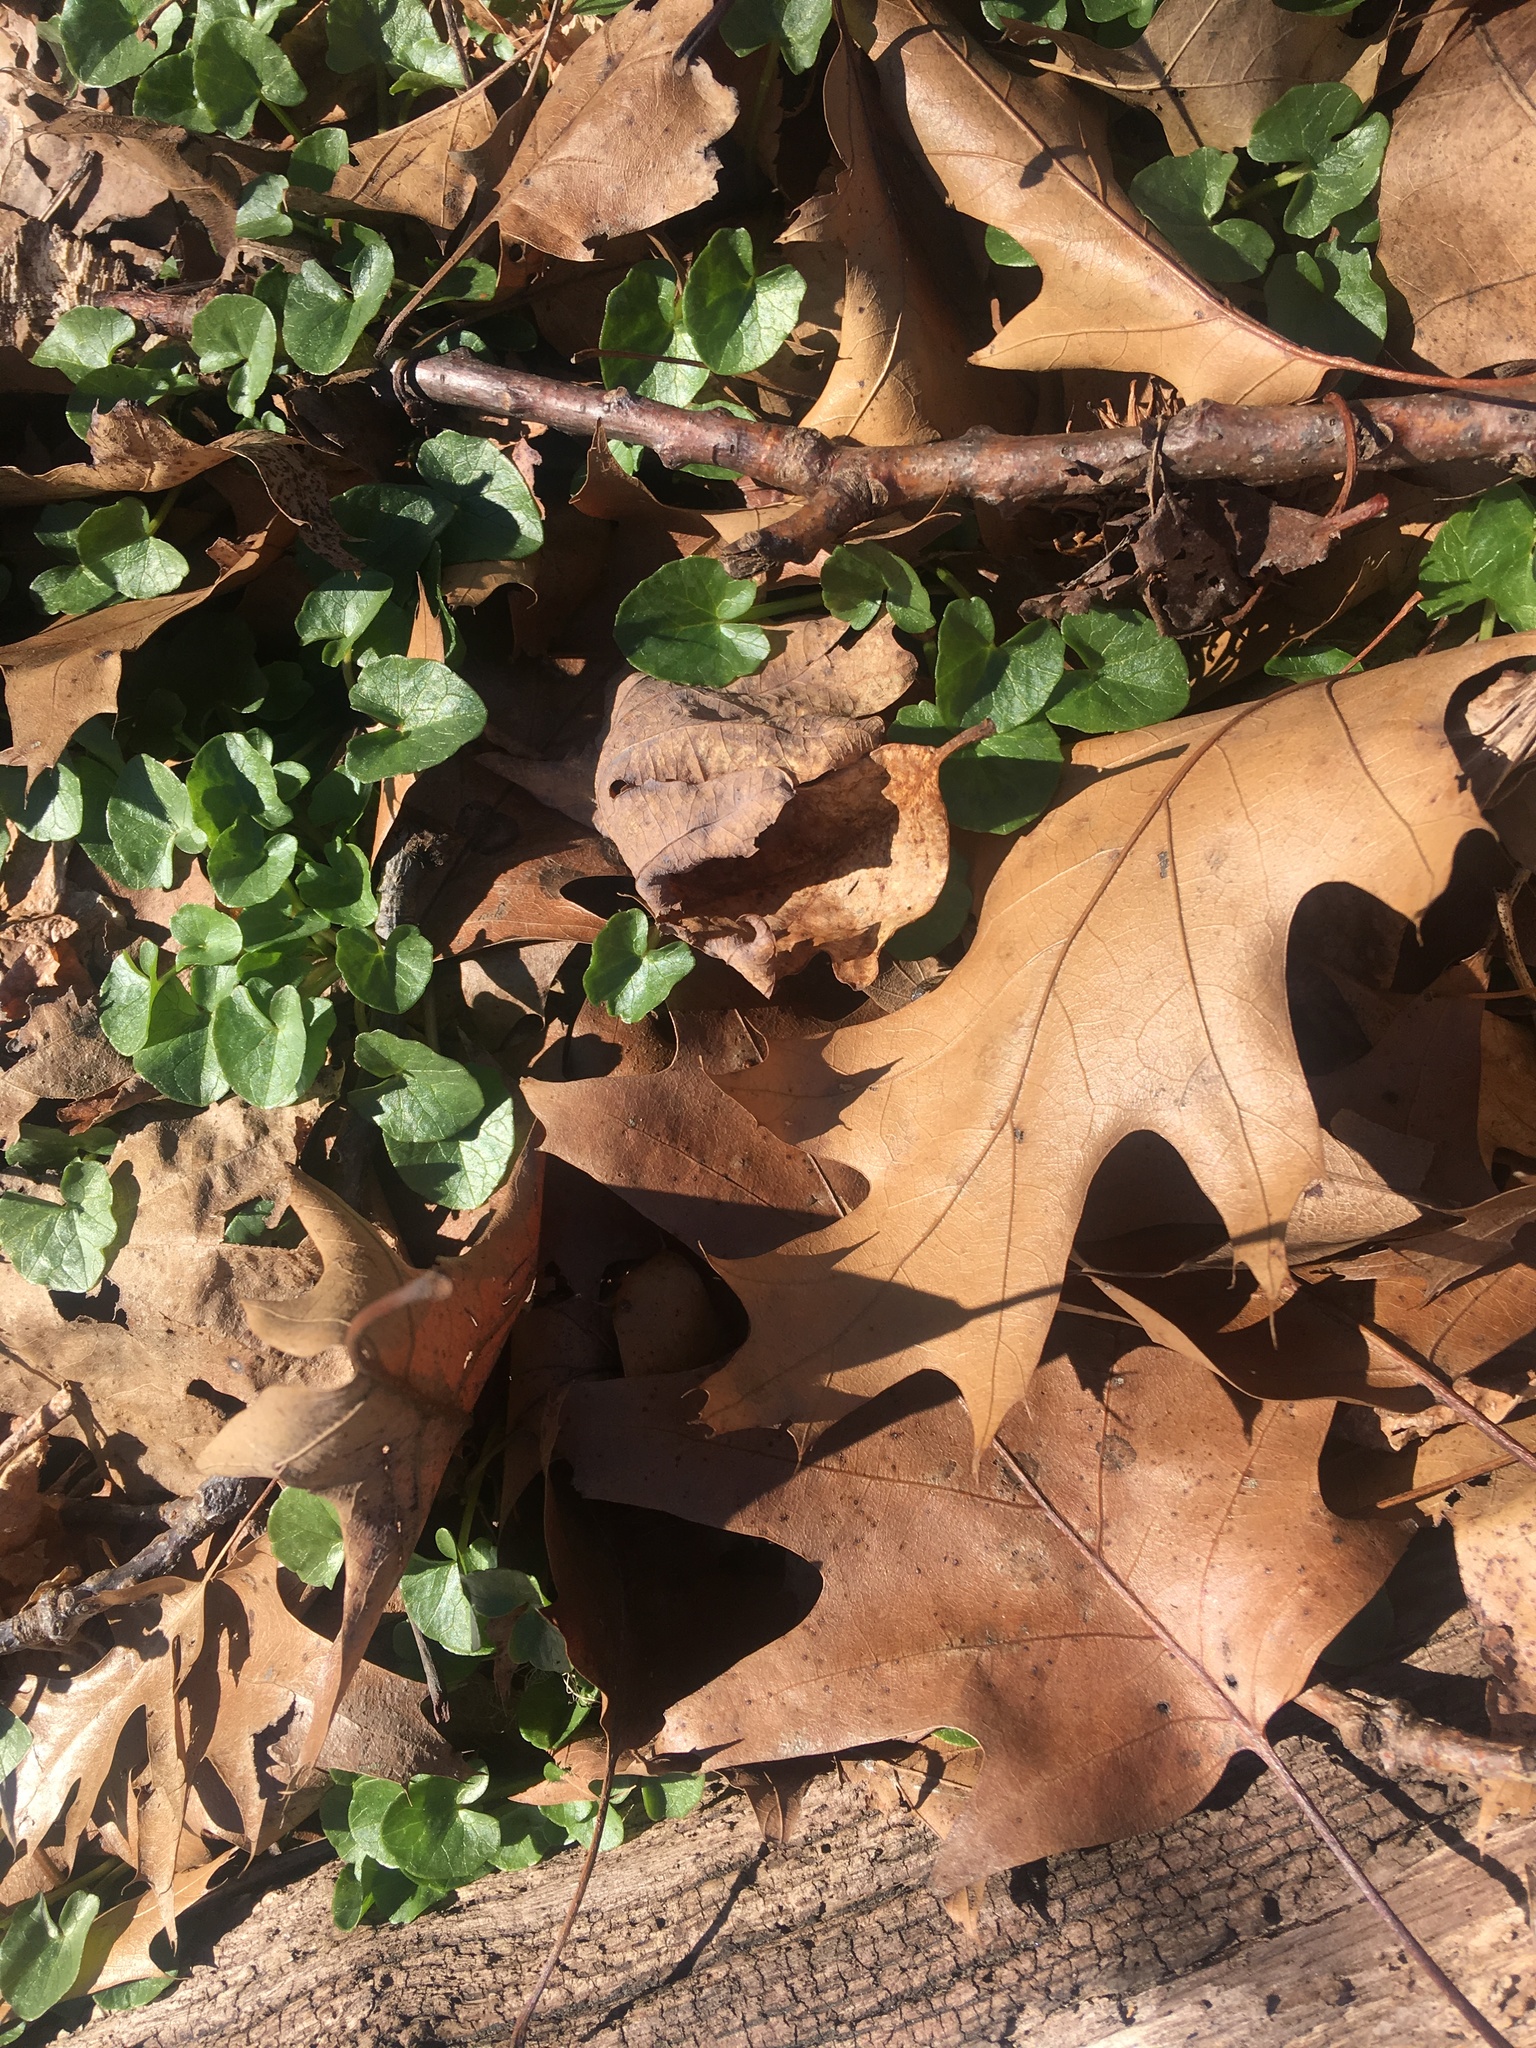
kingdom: Plantae
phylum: Tracheophyta
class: Magnoliopsida
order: Ranunculales
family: Ranunculaceae
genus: Ficaria
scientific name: Ficaria verna
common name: Lesser celandine
